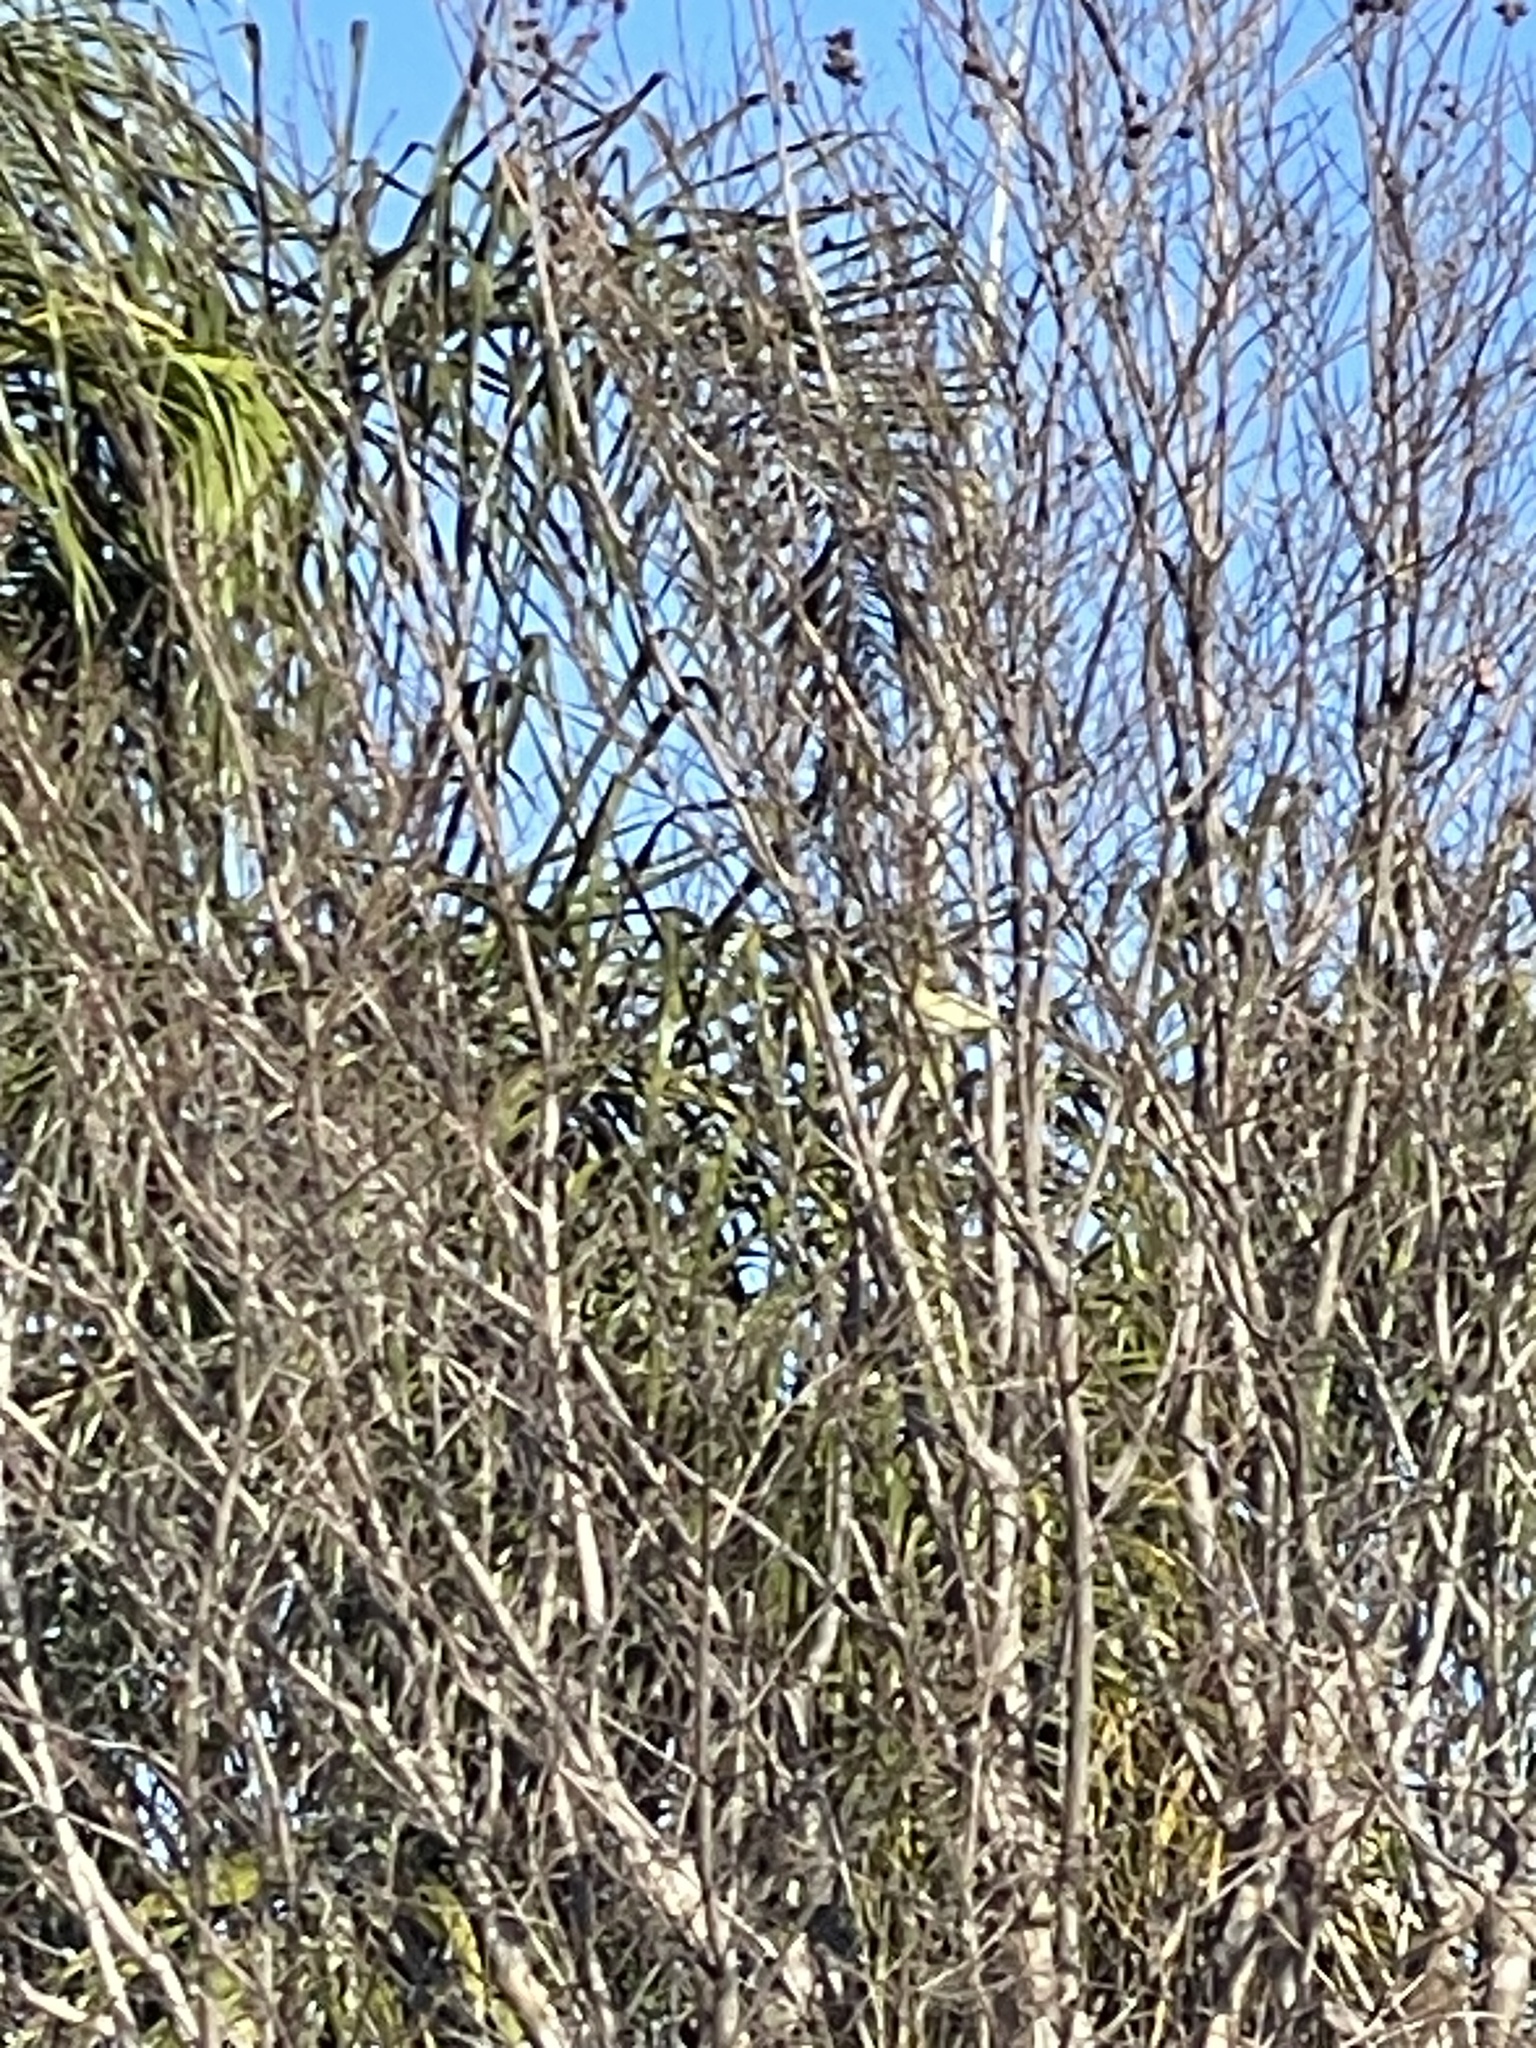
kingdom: Animalia
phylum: Chordata
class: Aves
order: Passeriformes
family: Fringillidae
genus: Spinus
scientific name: Spinus psaltria
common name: Lesser goldfinch
